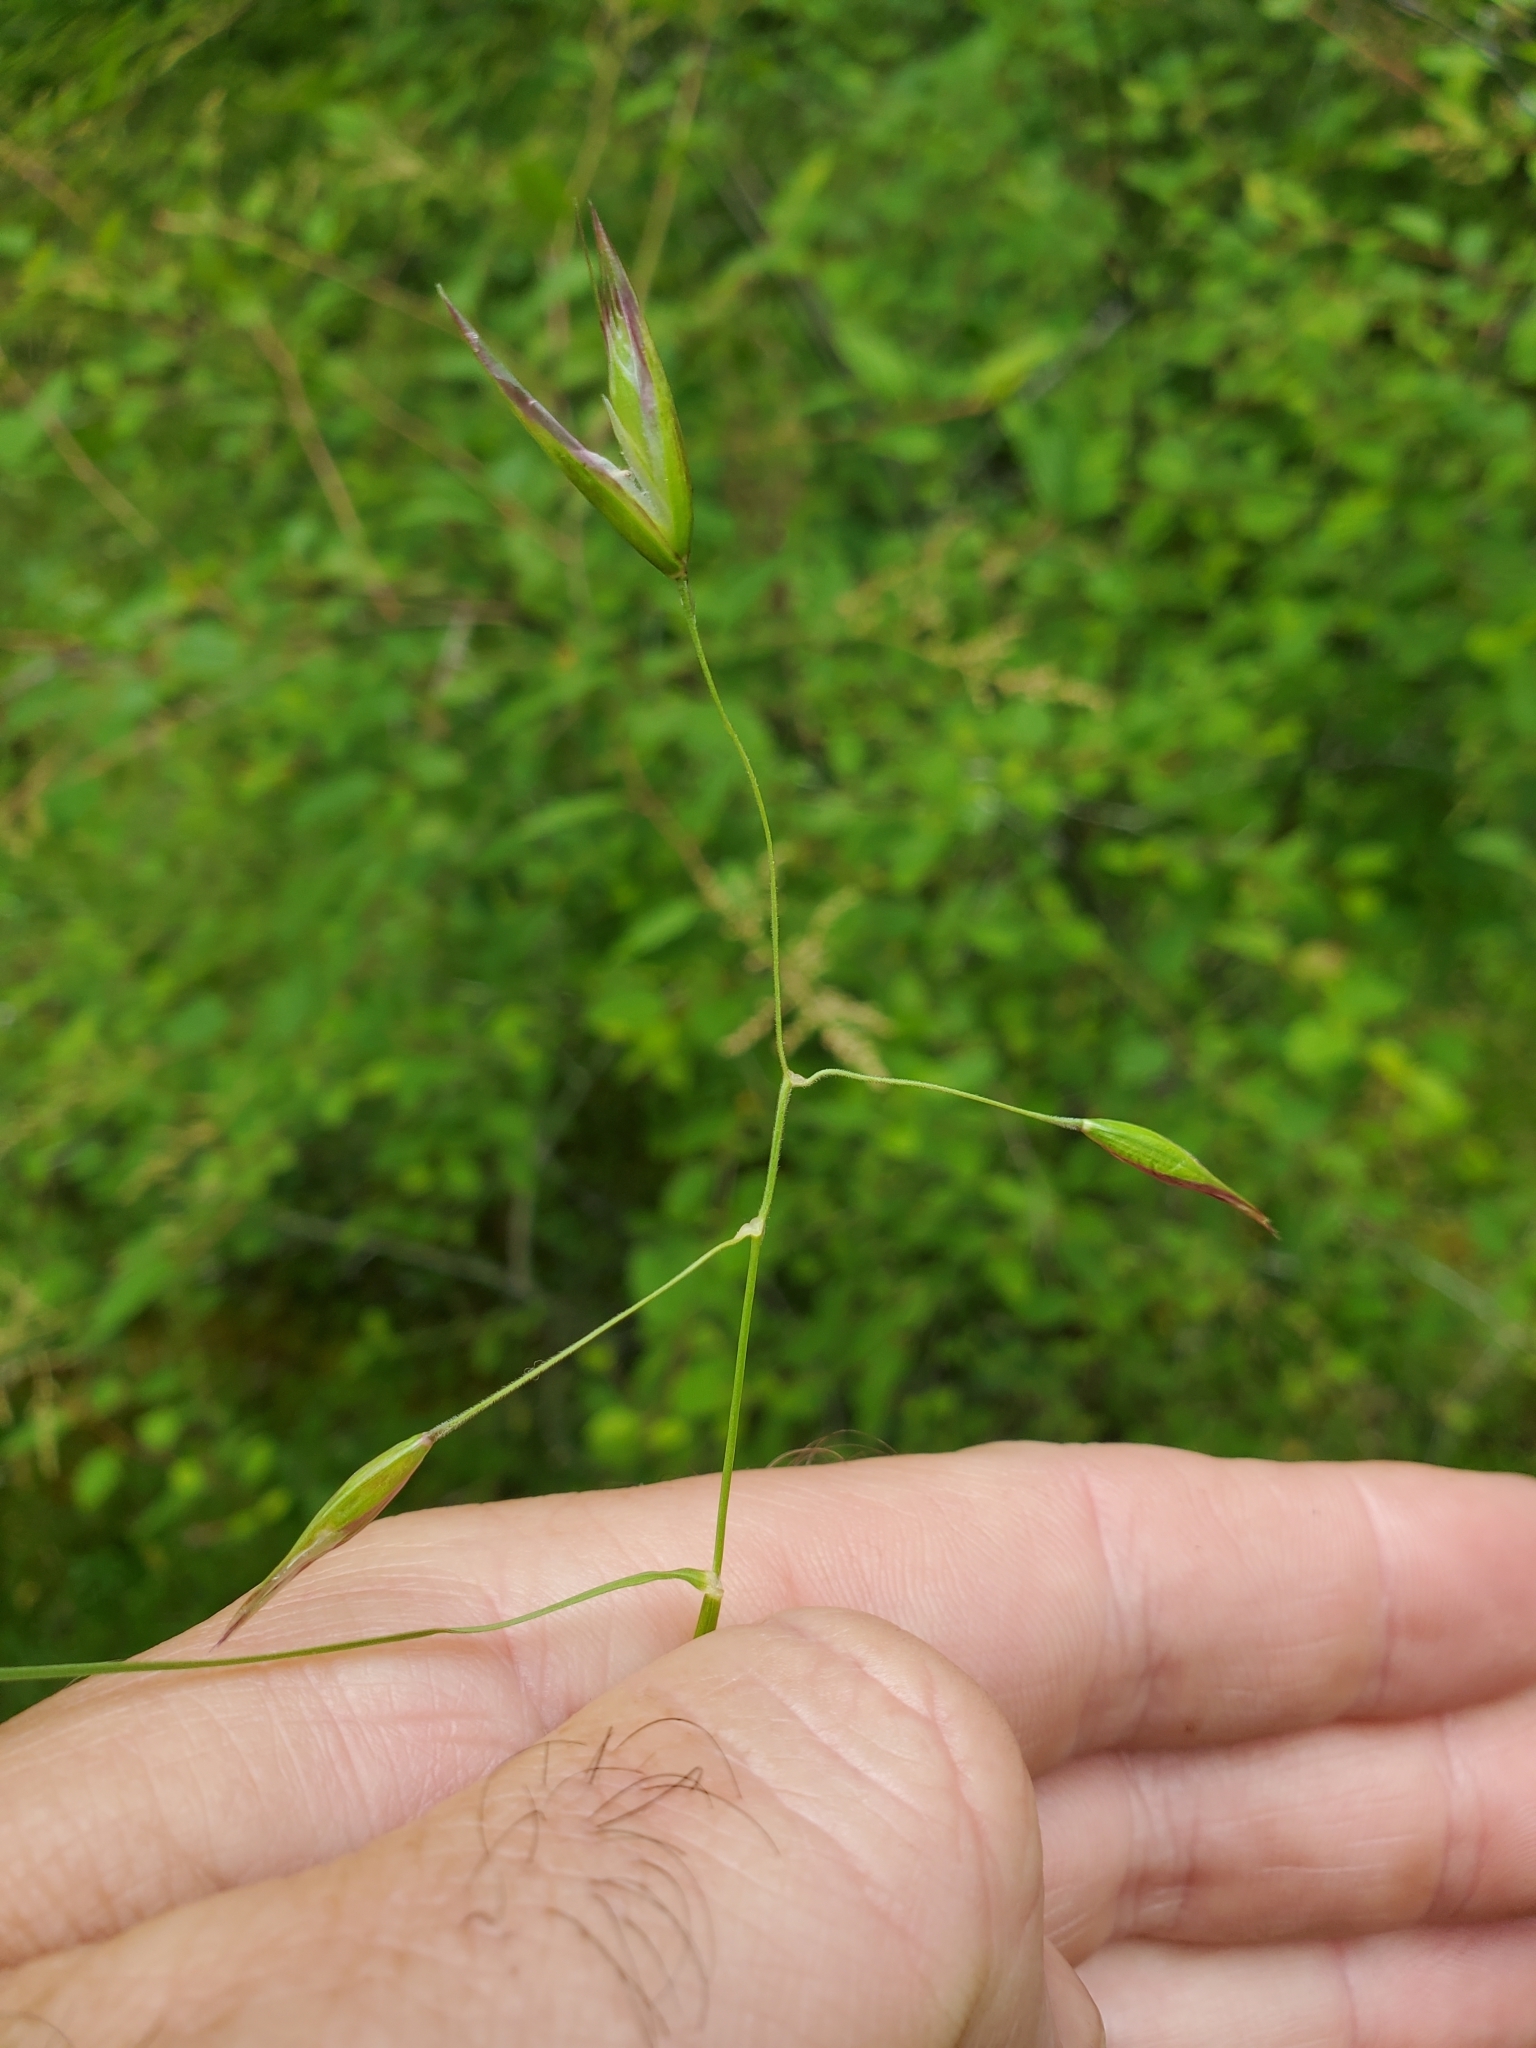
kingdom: Plantae
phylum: Tracheophyta
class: Liliopsida
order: Poales
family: Poaceae
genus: Danthonia
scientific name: Danthonia californica
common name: California oat grass
